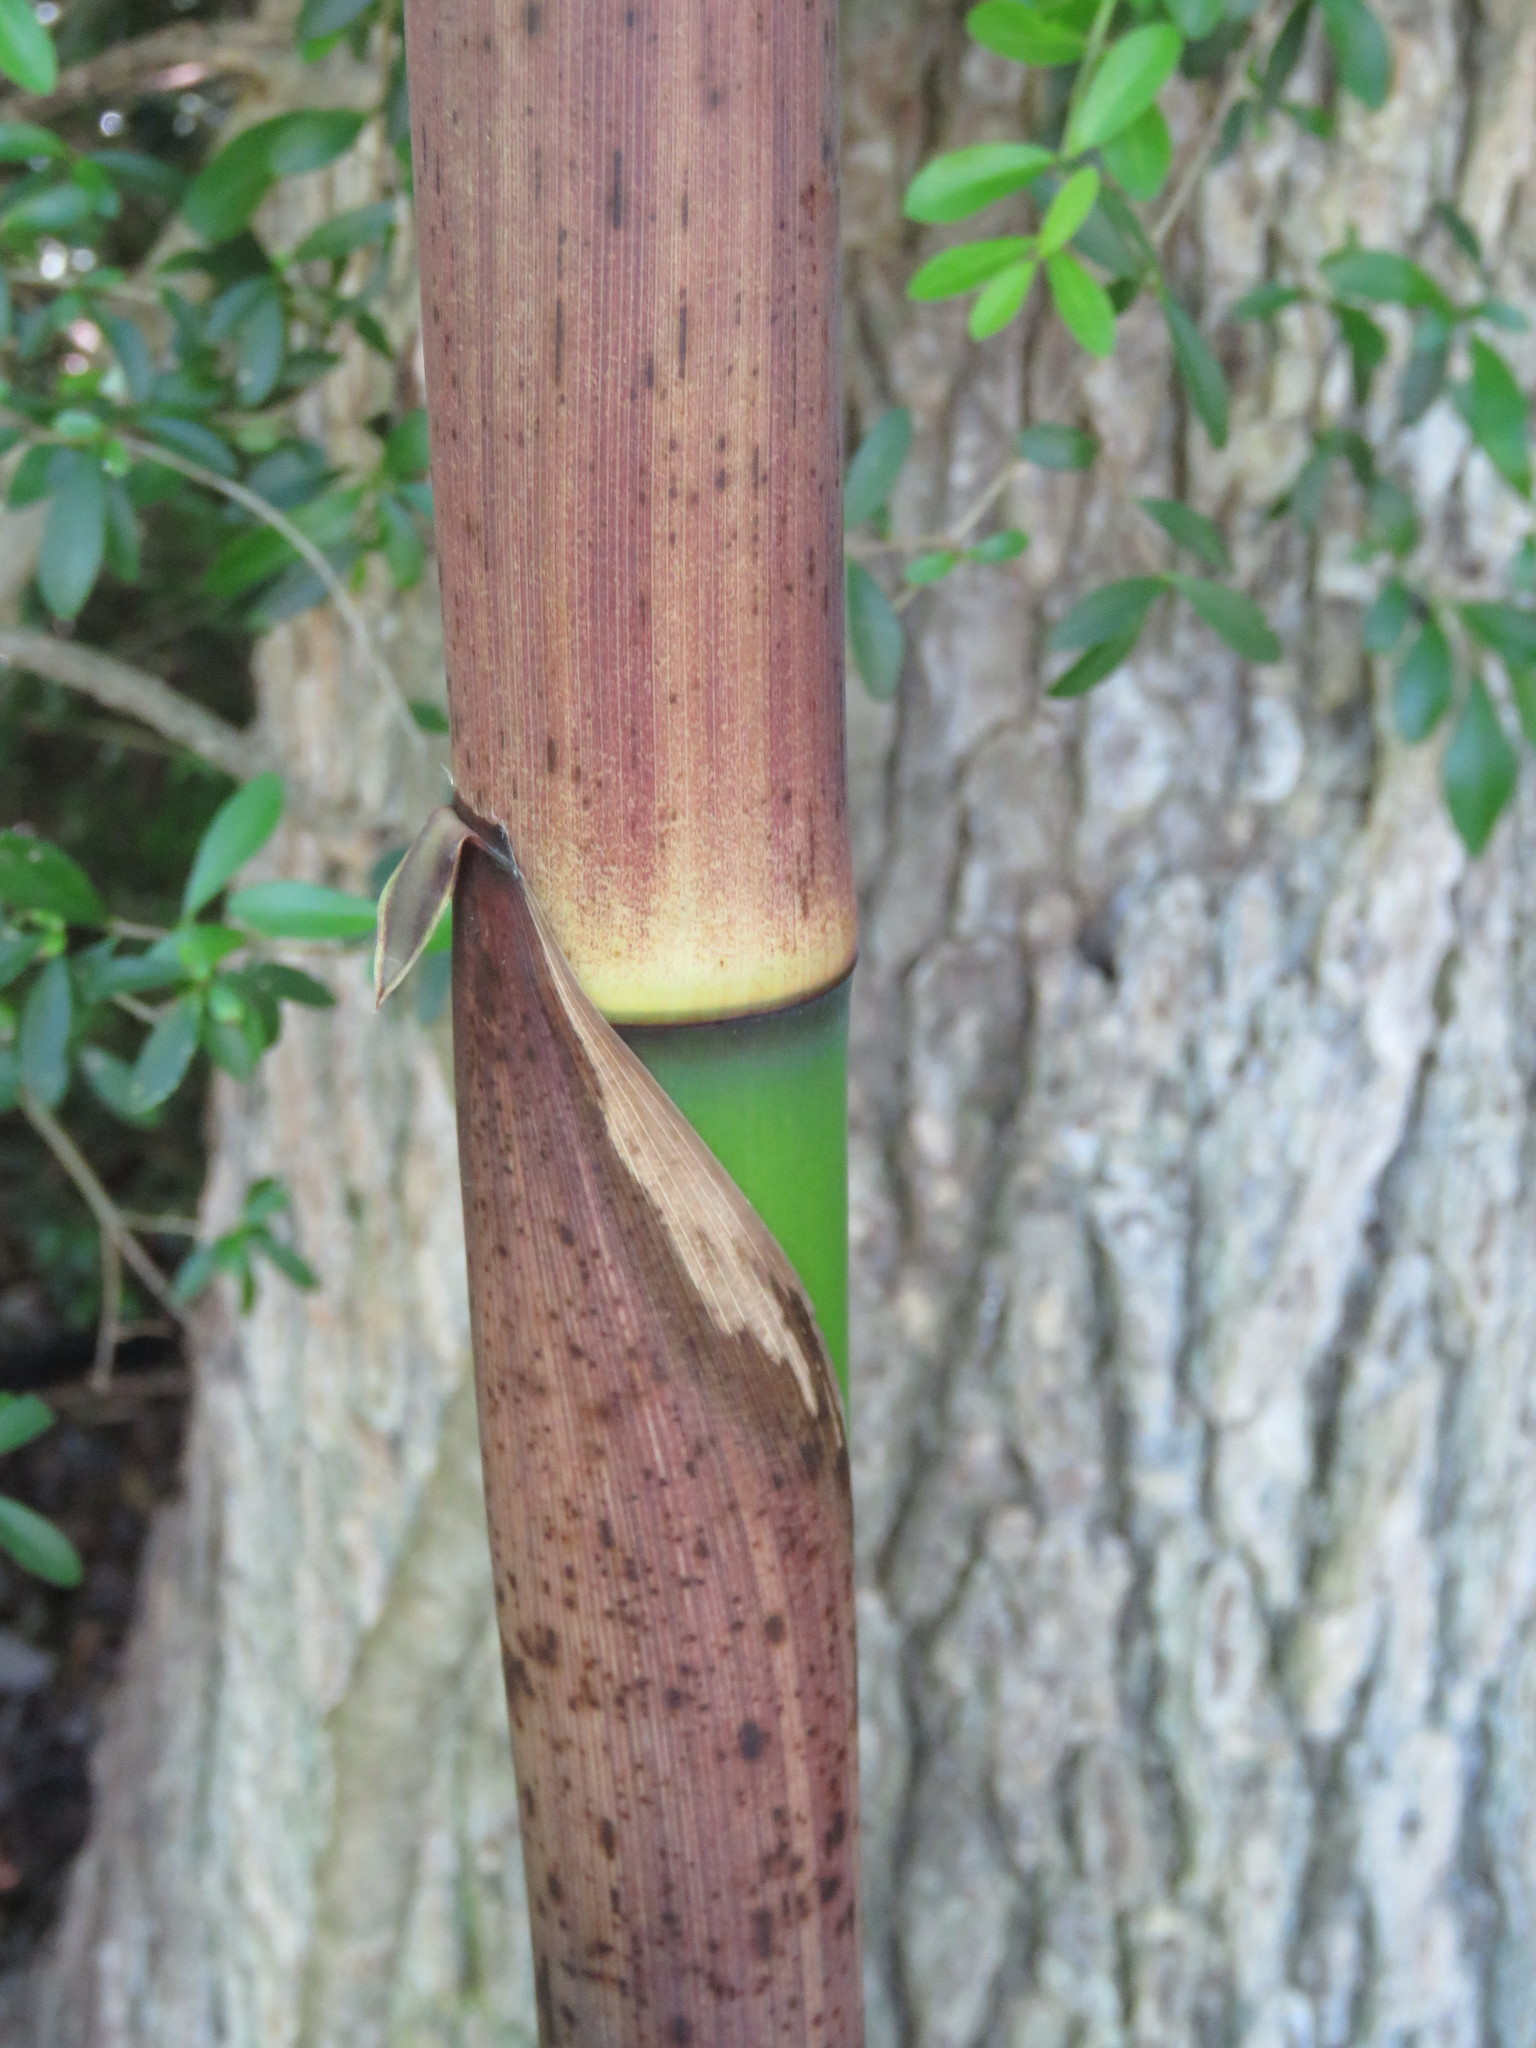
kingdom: Plantae
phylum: Tracheophyta
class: Liliopsida
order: Poales
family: Poaceae
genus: Phyllostachys
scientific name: Phyllostachys aurea
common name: Golden bamboo
